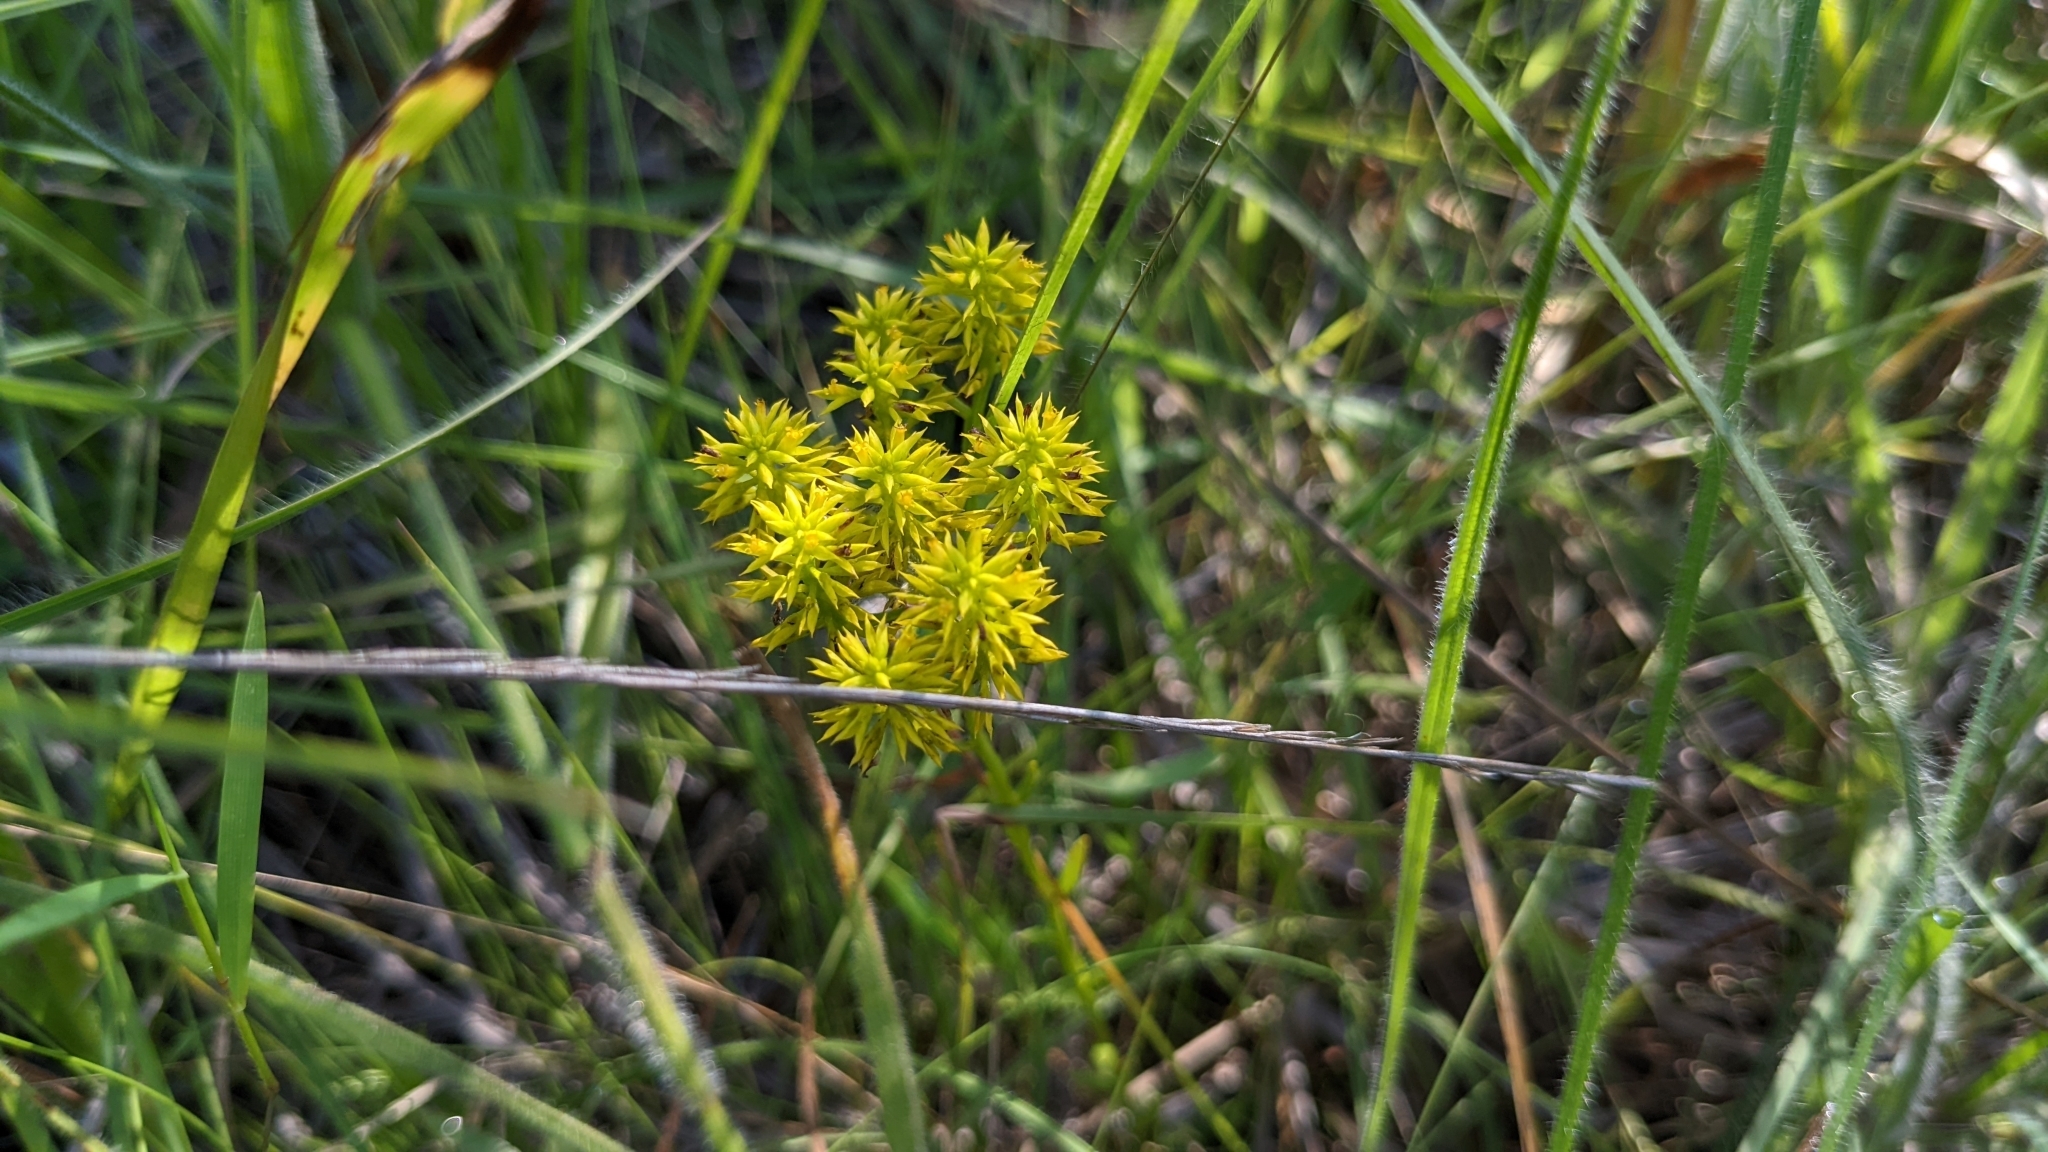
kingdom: Plantae
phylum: Tracheophyta
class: Magnoliopsida
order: Fabales
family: Polygalaceae
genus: Polygala
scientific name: Polygala ramosa
